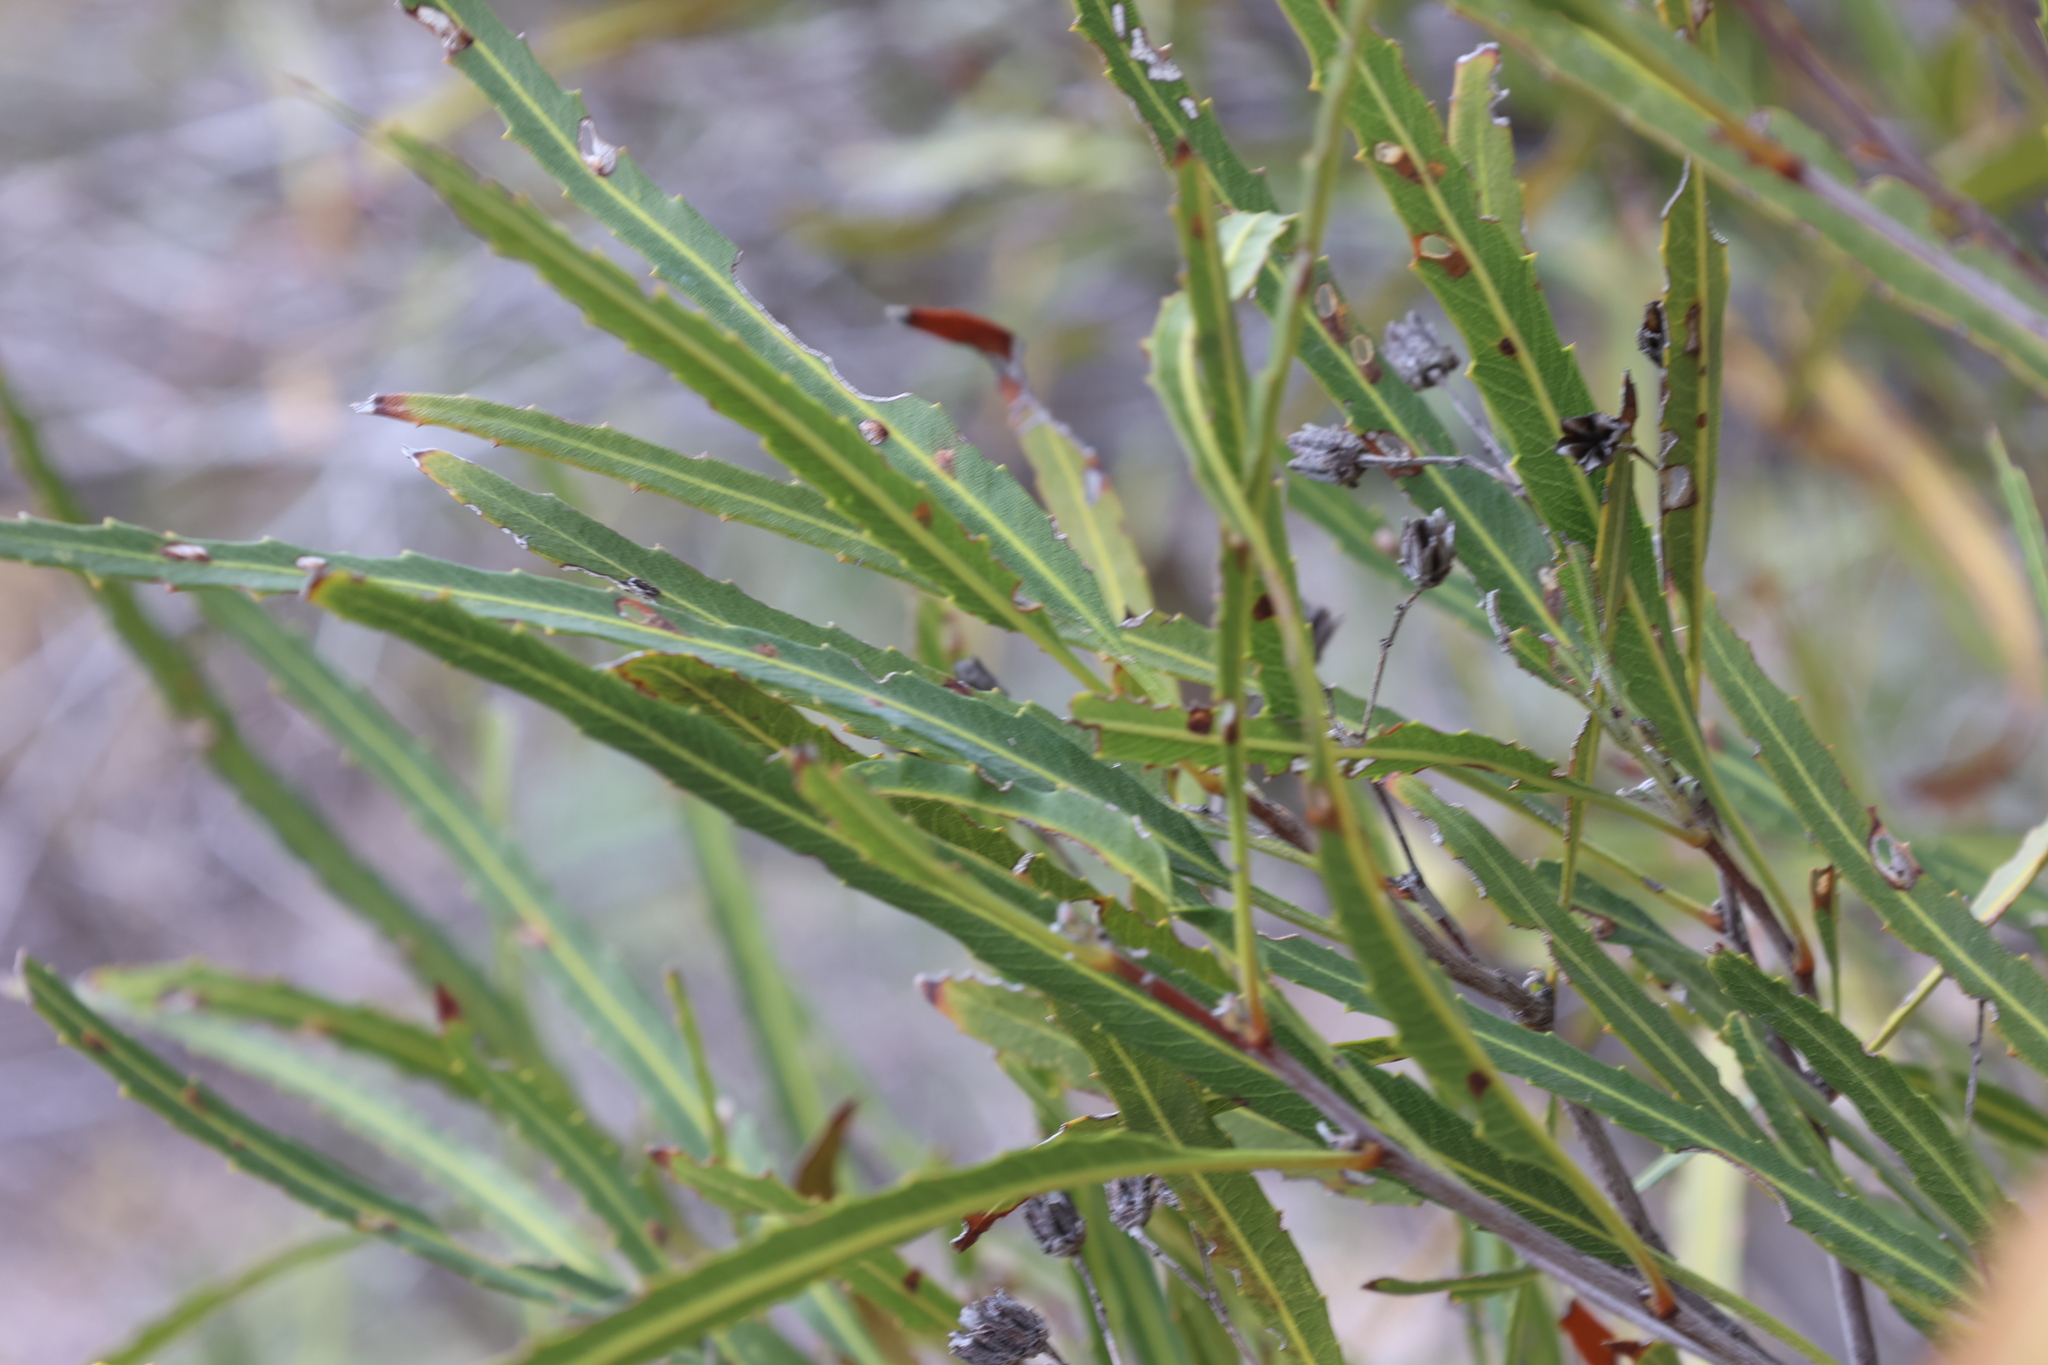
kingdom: Plantae
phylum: Tracheophyta
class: Magnoliopsida
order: Rosales
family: Rosaceae
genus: Vauquelinia
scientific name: Vauquelinia corymbosa
